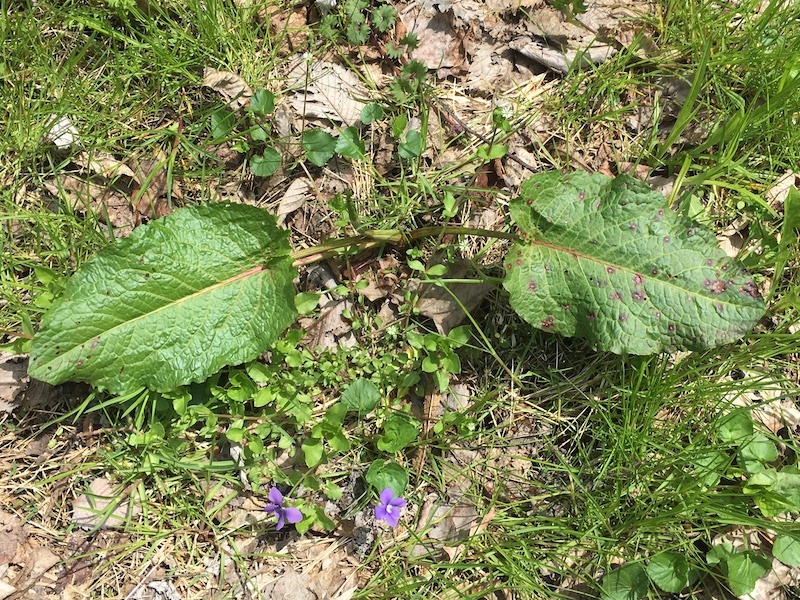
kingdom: Plantae
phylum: Tracheophyta
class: Magnoliopsida
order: Caryophyllales
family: Polygonaceae
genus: Rumex
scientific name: Rumex obtusifolius
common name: Bitter dock
